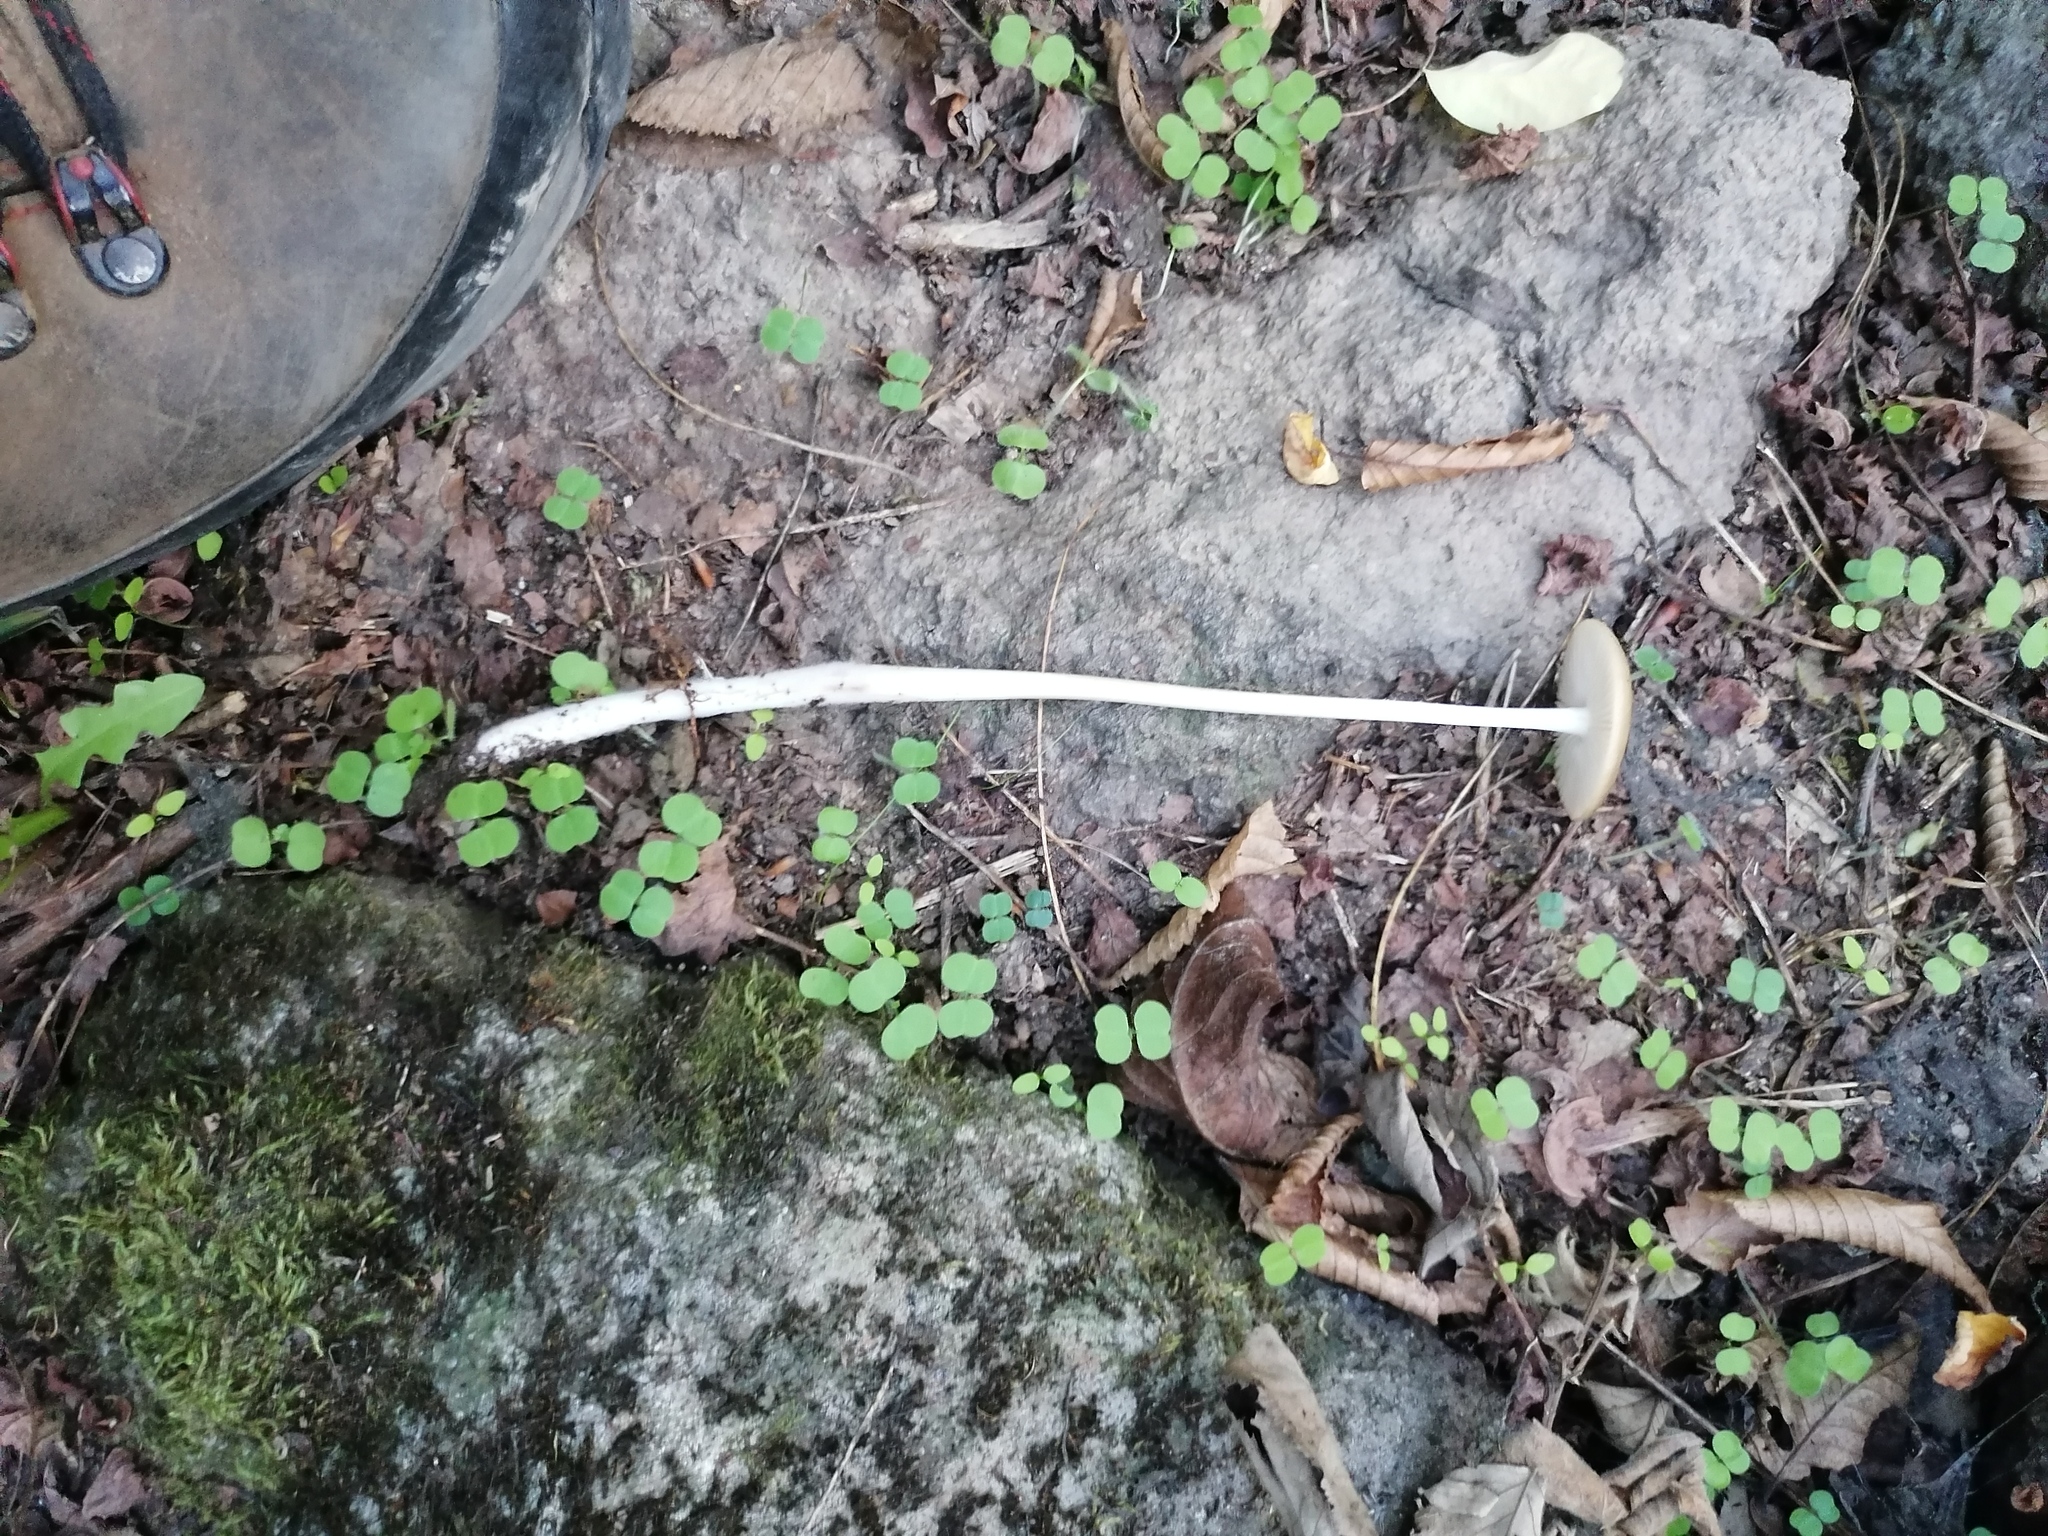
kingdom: Fungi
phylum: Basidiomycota
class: Agaricomycetes
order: Agaricales
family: Physalacriaceae
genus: Hymenopellis
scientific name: Hymenopellis radicata
